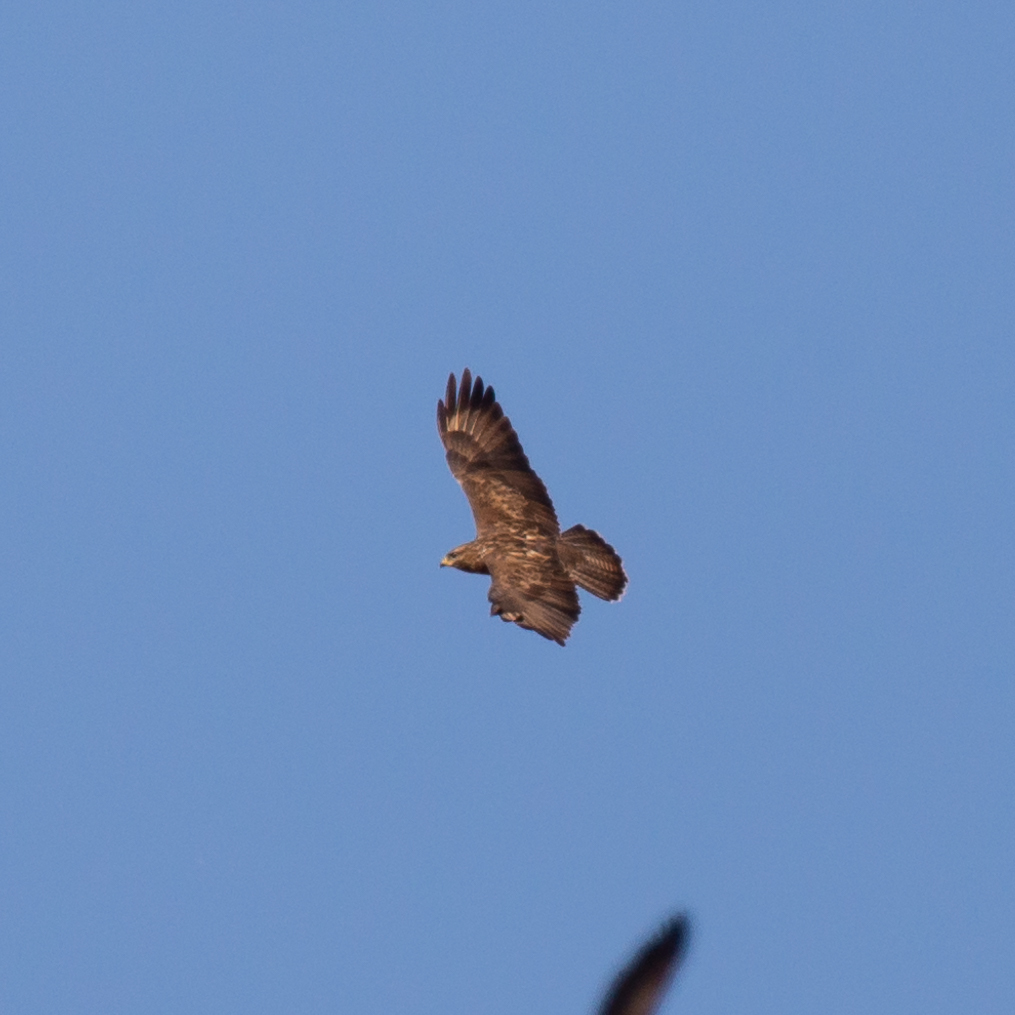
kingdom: Animalia
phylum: Chordata
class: Aves
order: Accipitriformes
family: Accipitridae
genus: Buteo
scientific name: Buteo buteo
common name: Common buzzard
